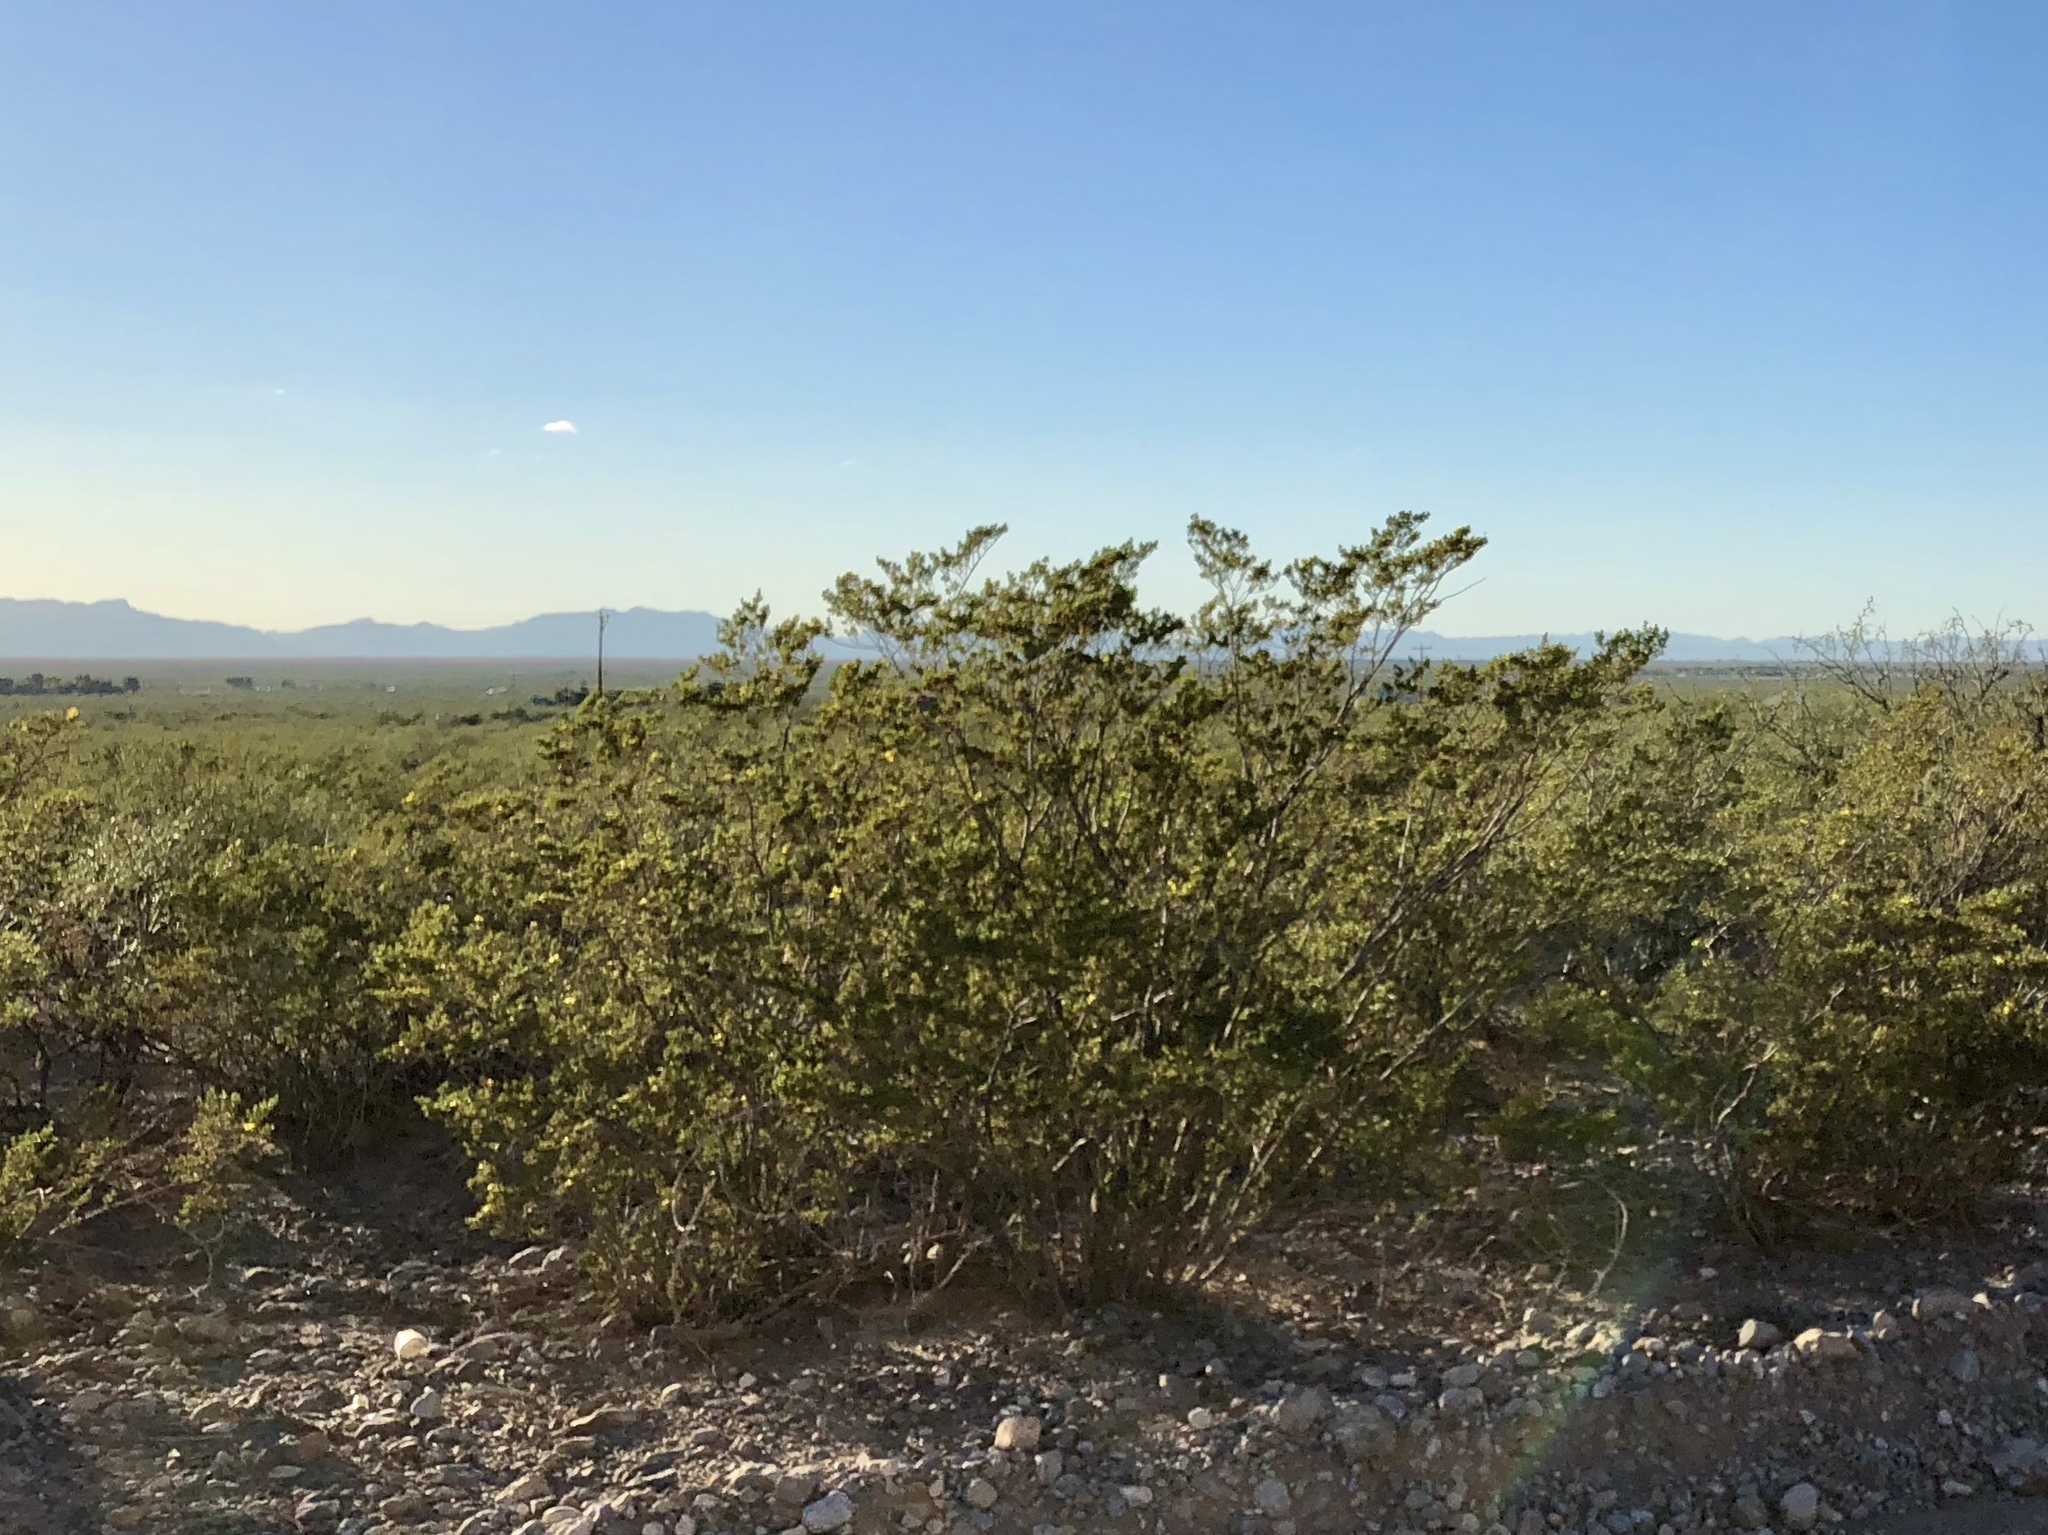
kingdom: Plantae
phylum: Tracheophyta
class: Magnoliopsida
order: Zygophyllales
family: Zygophyllaceae
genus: Larrea
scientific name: Larrea tridentata
